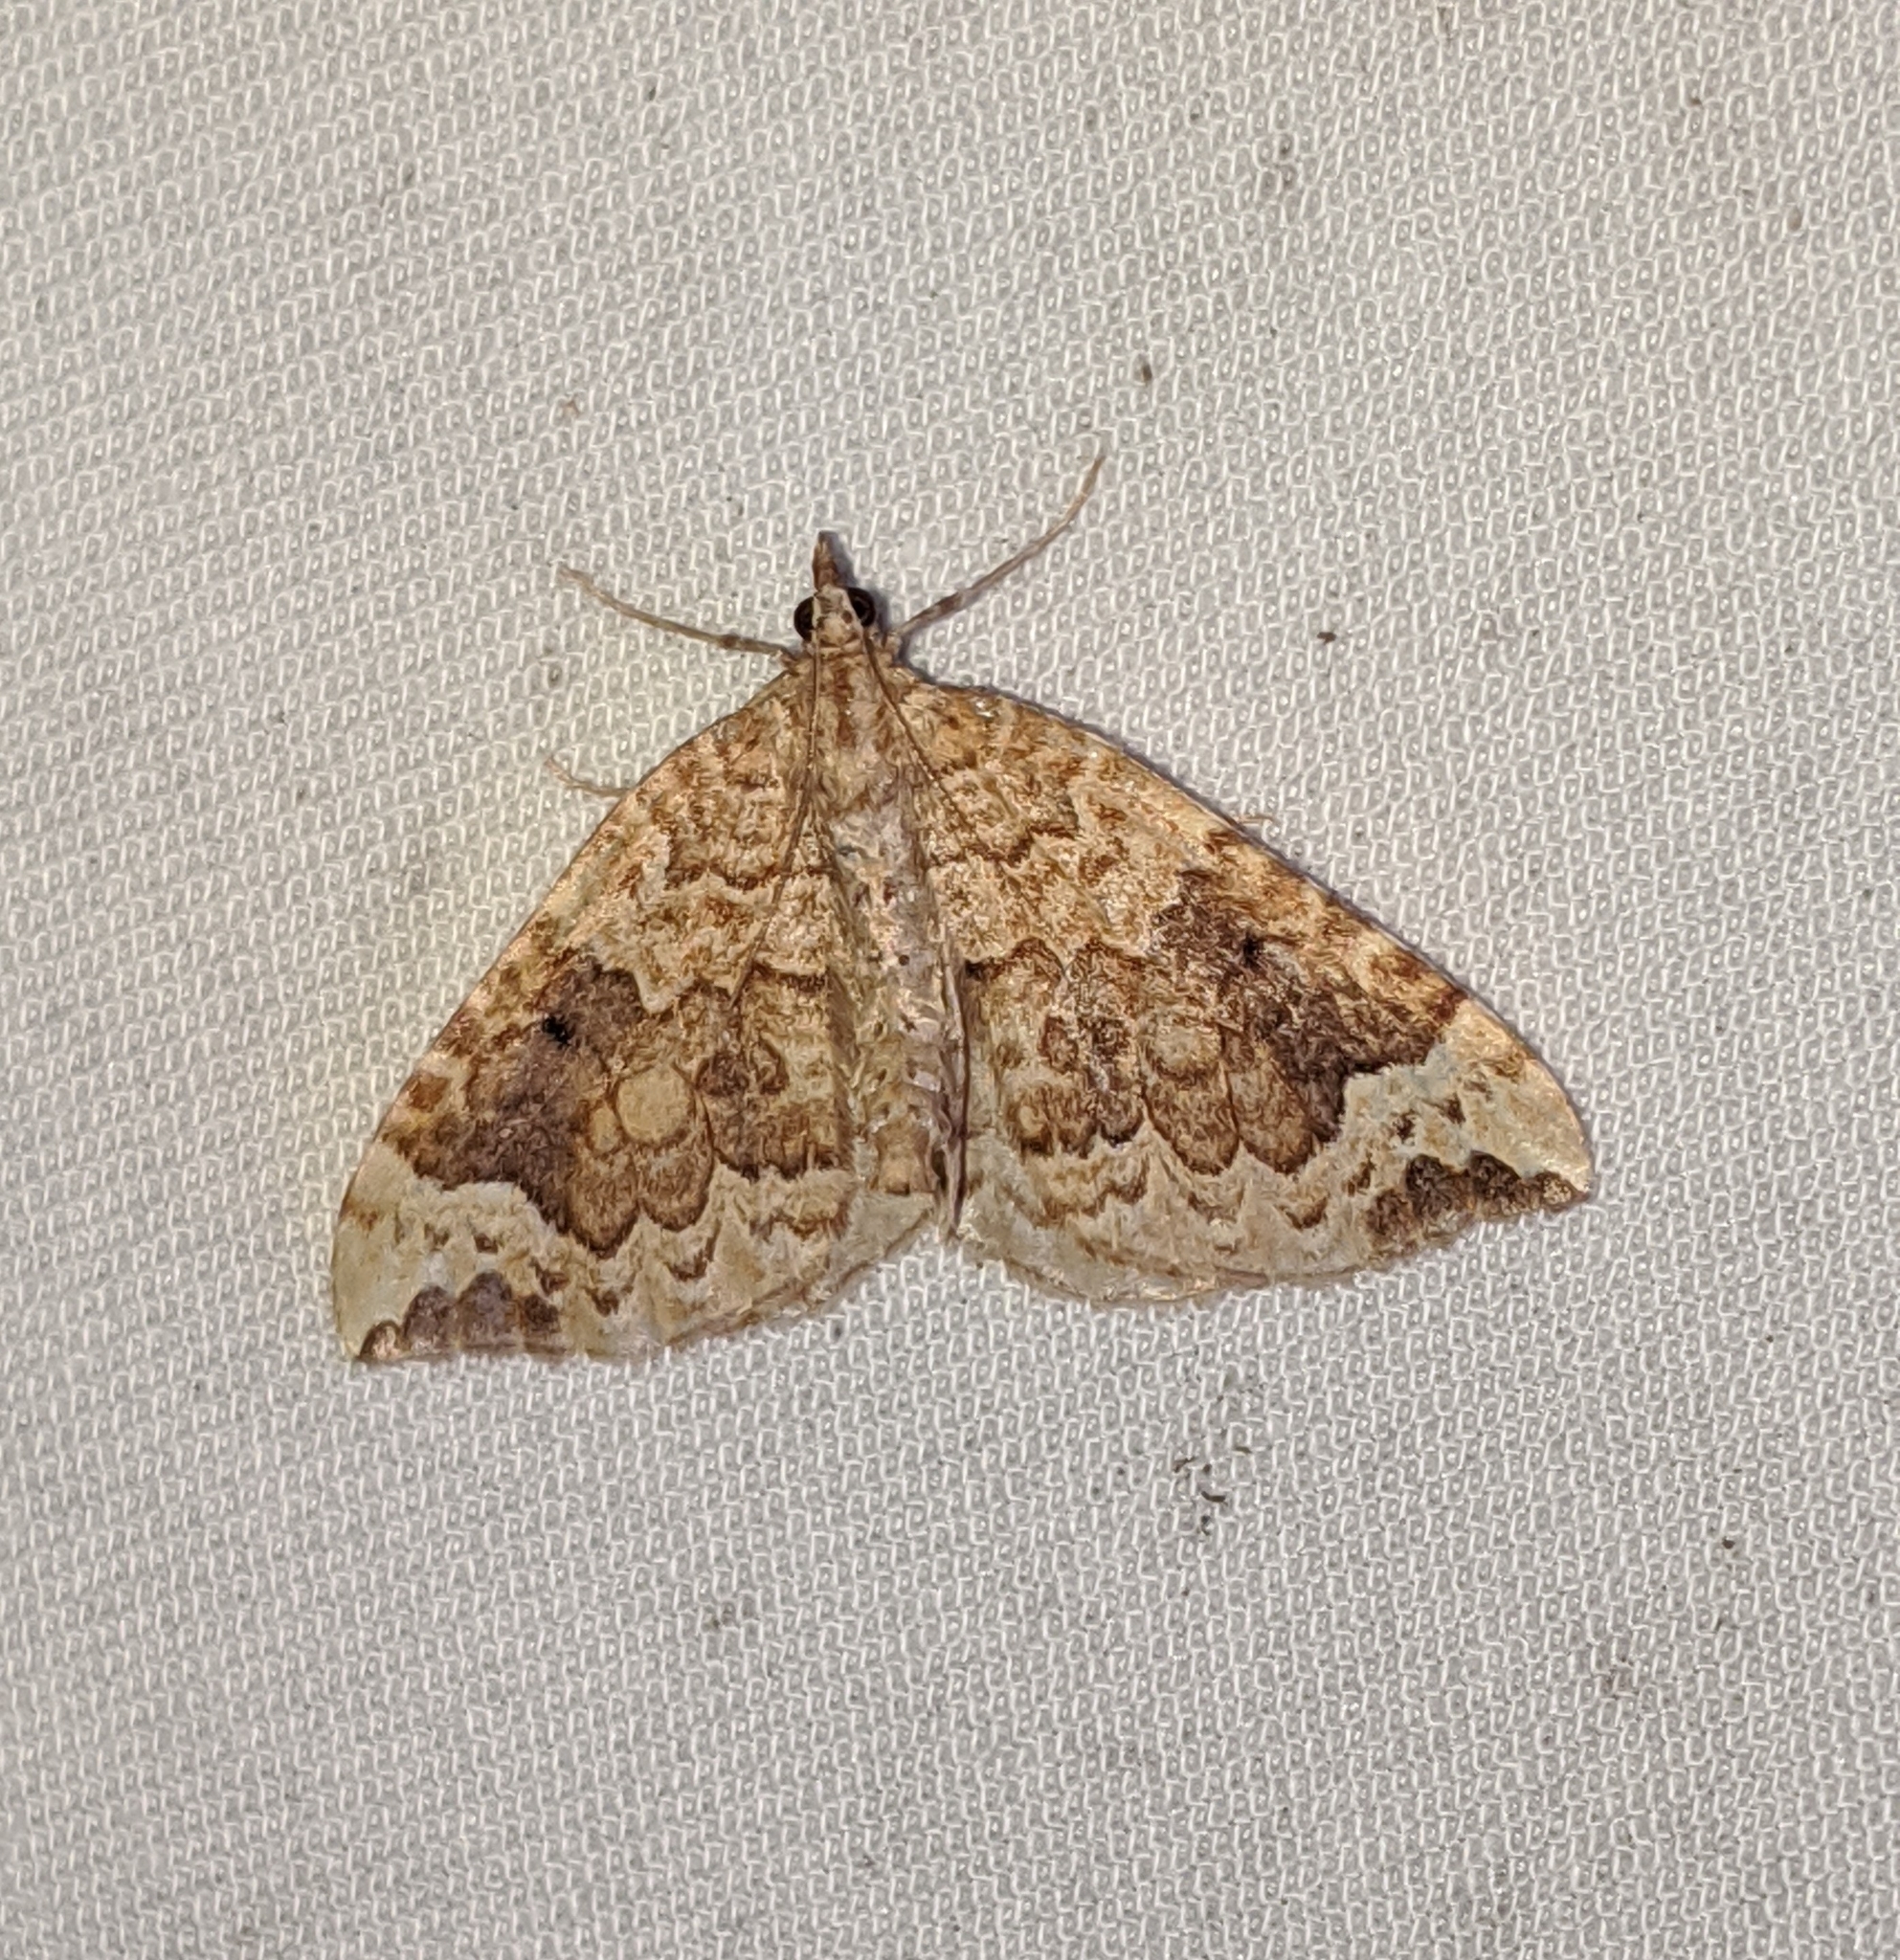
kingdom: Animalia
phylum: Arthropoda
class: Insecta
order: Lepidoptera
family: Geometridae
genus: Eulithis
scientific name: Eulithis destinata
